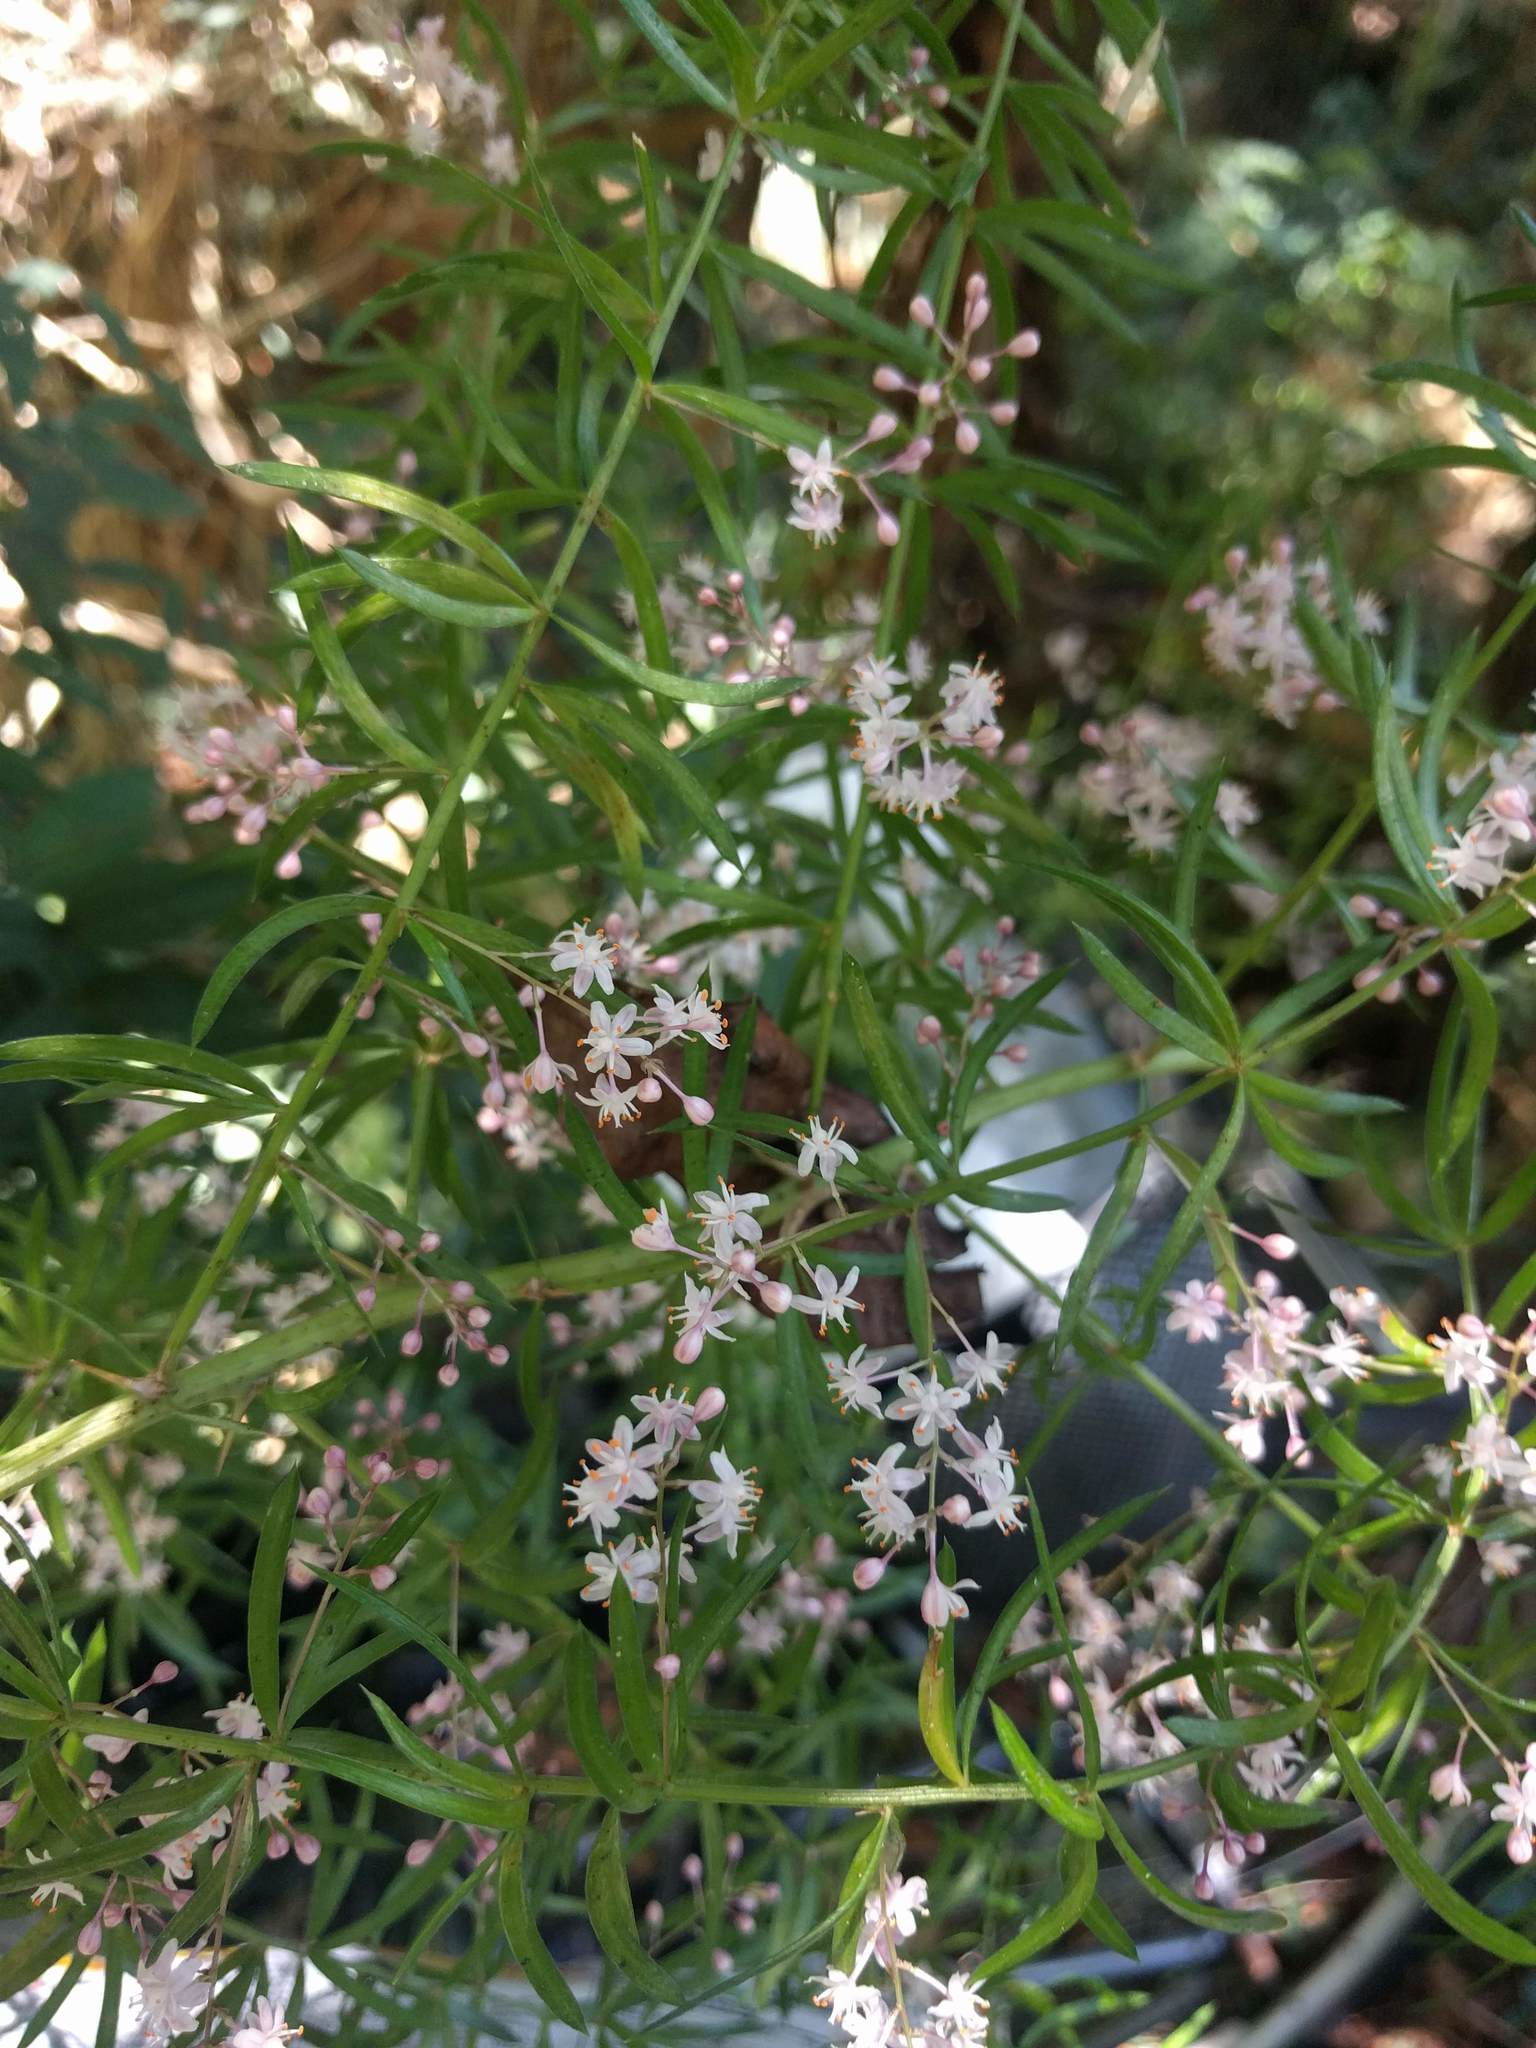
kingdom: Plantae
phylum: Tracheophyta
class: Liliopsida
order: Asparagales
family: Asparagaceae
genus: Asparagus
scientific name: Asparagus aethiopicus
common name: Sprenger's asparagus fern
